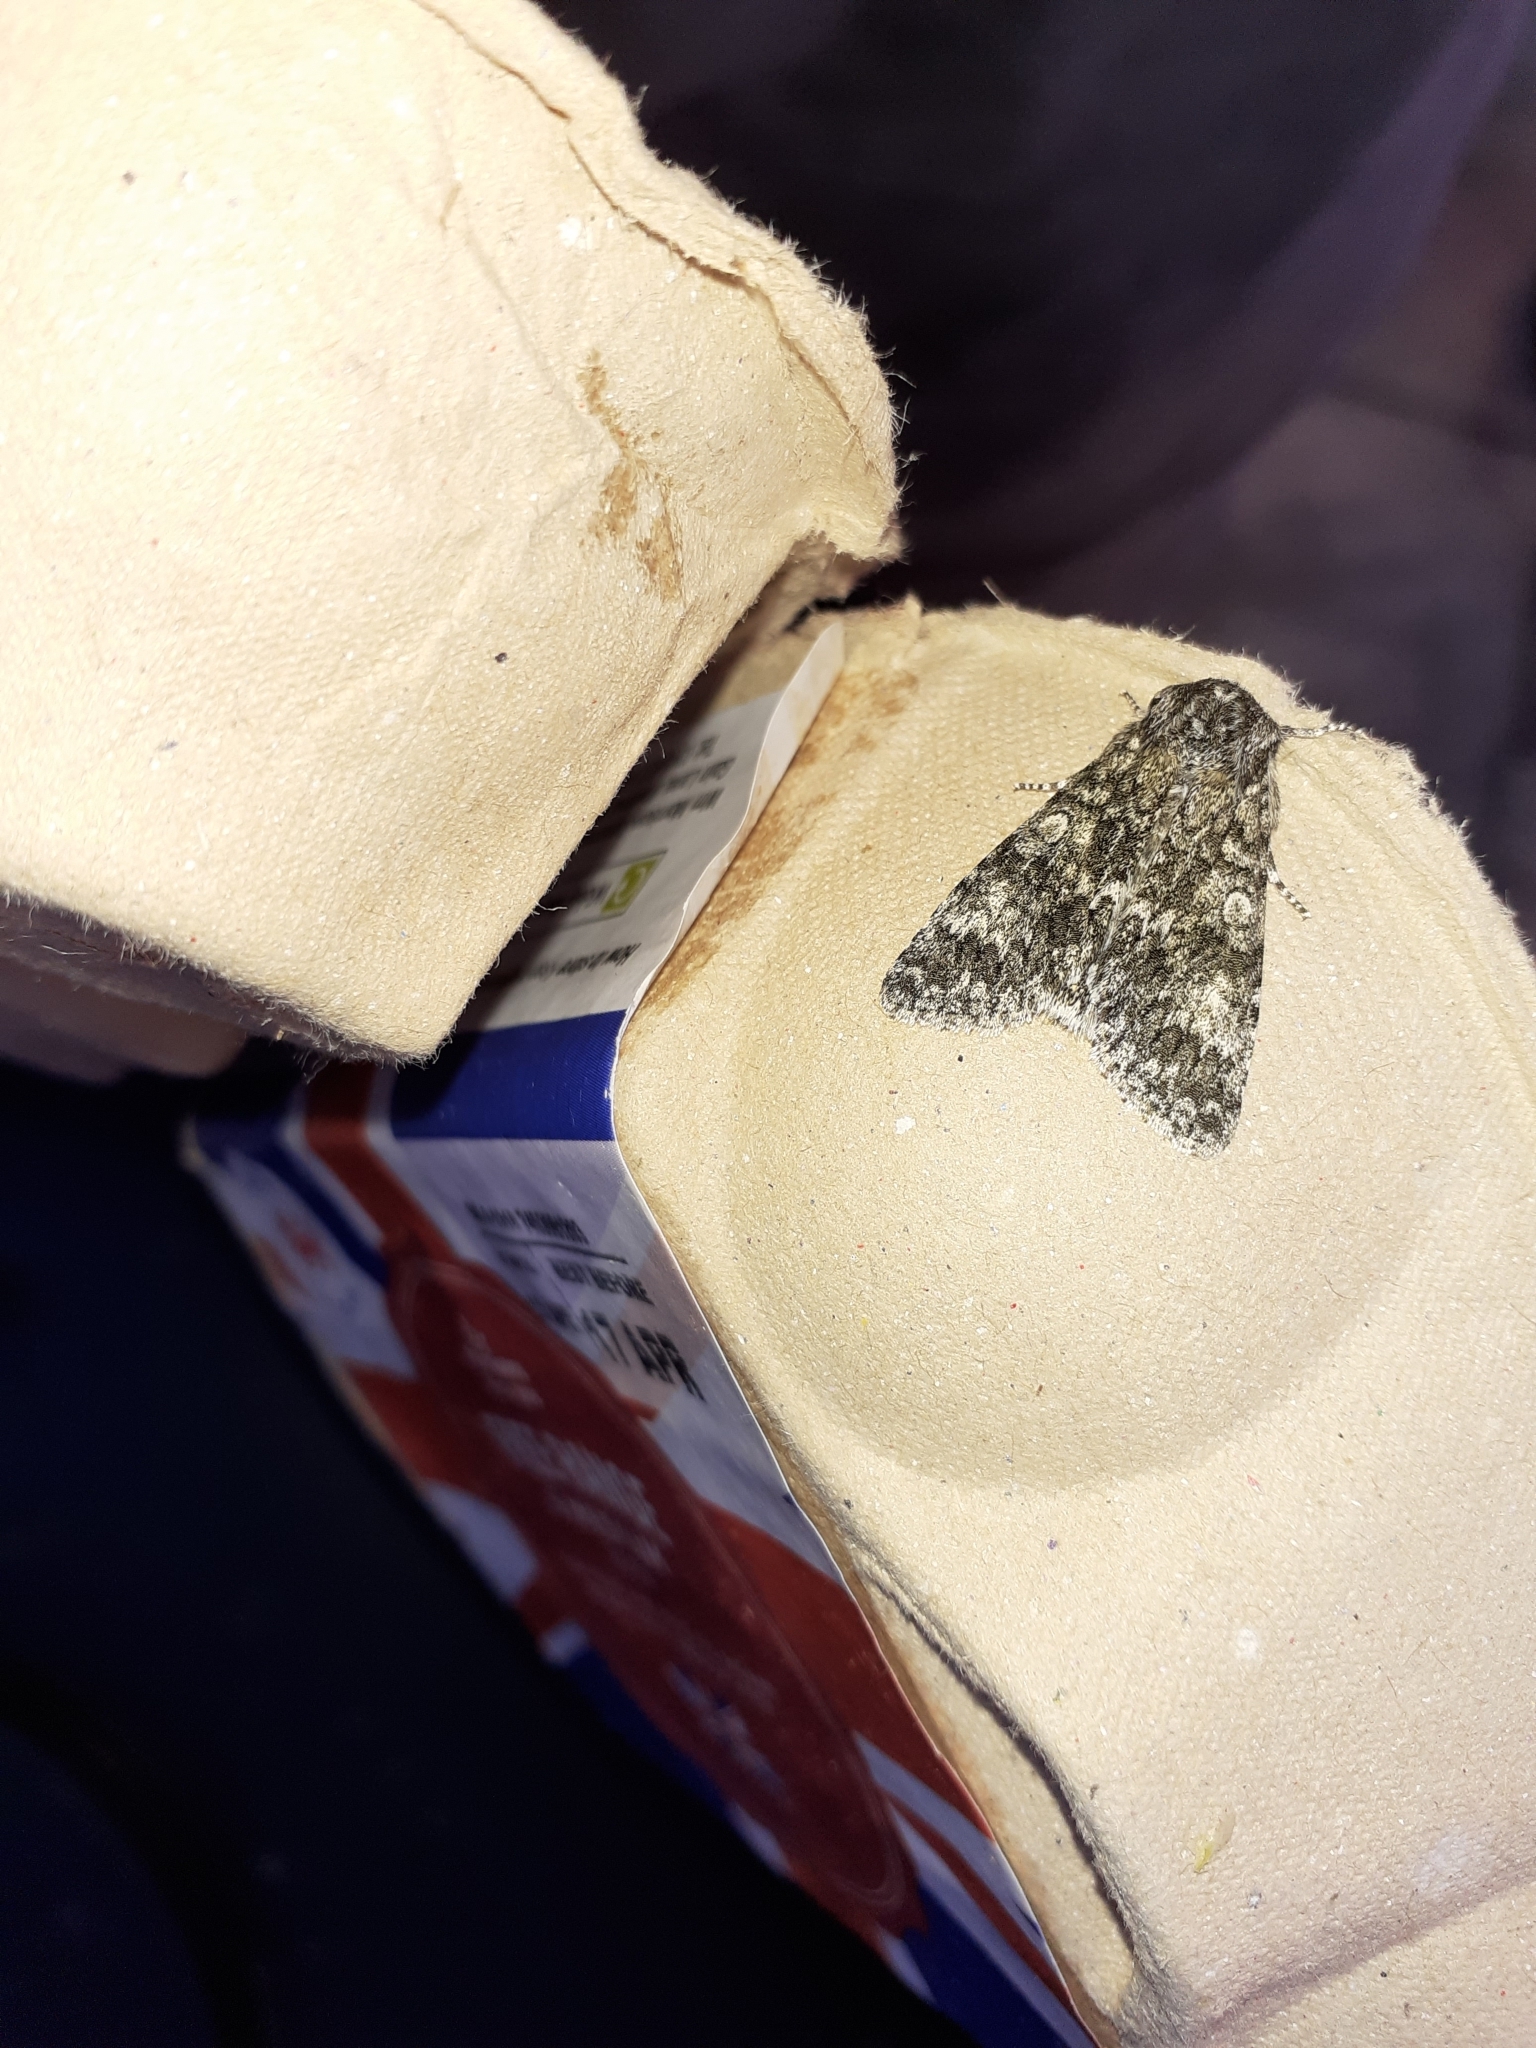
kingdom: Animalia
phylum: Arthropoda
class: Insecta
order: Lepidoptera
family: Noctuidae
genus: Acronicta
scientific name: Acronicta megacephala
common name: Poplar grey
